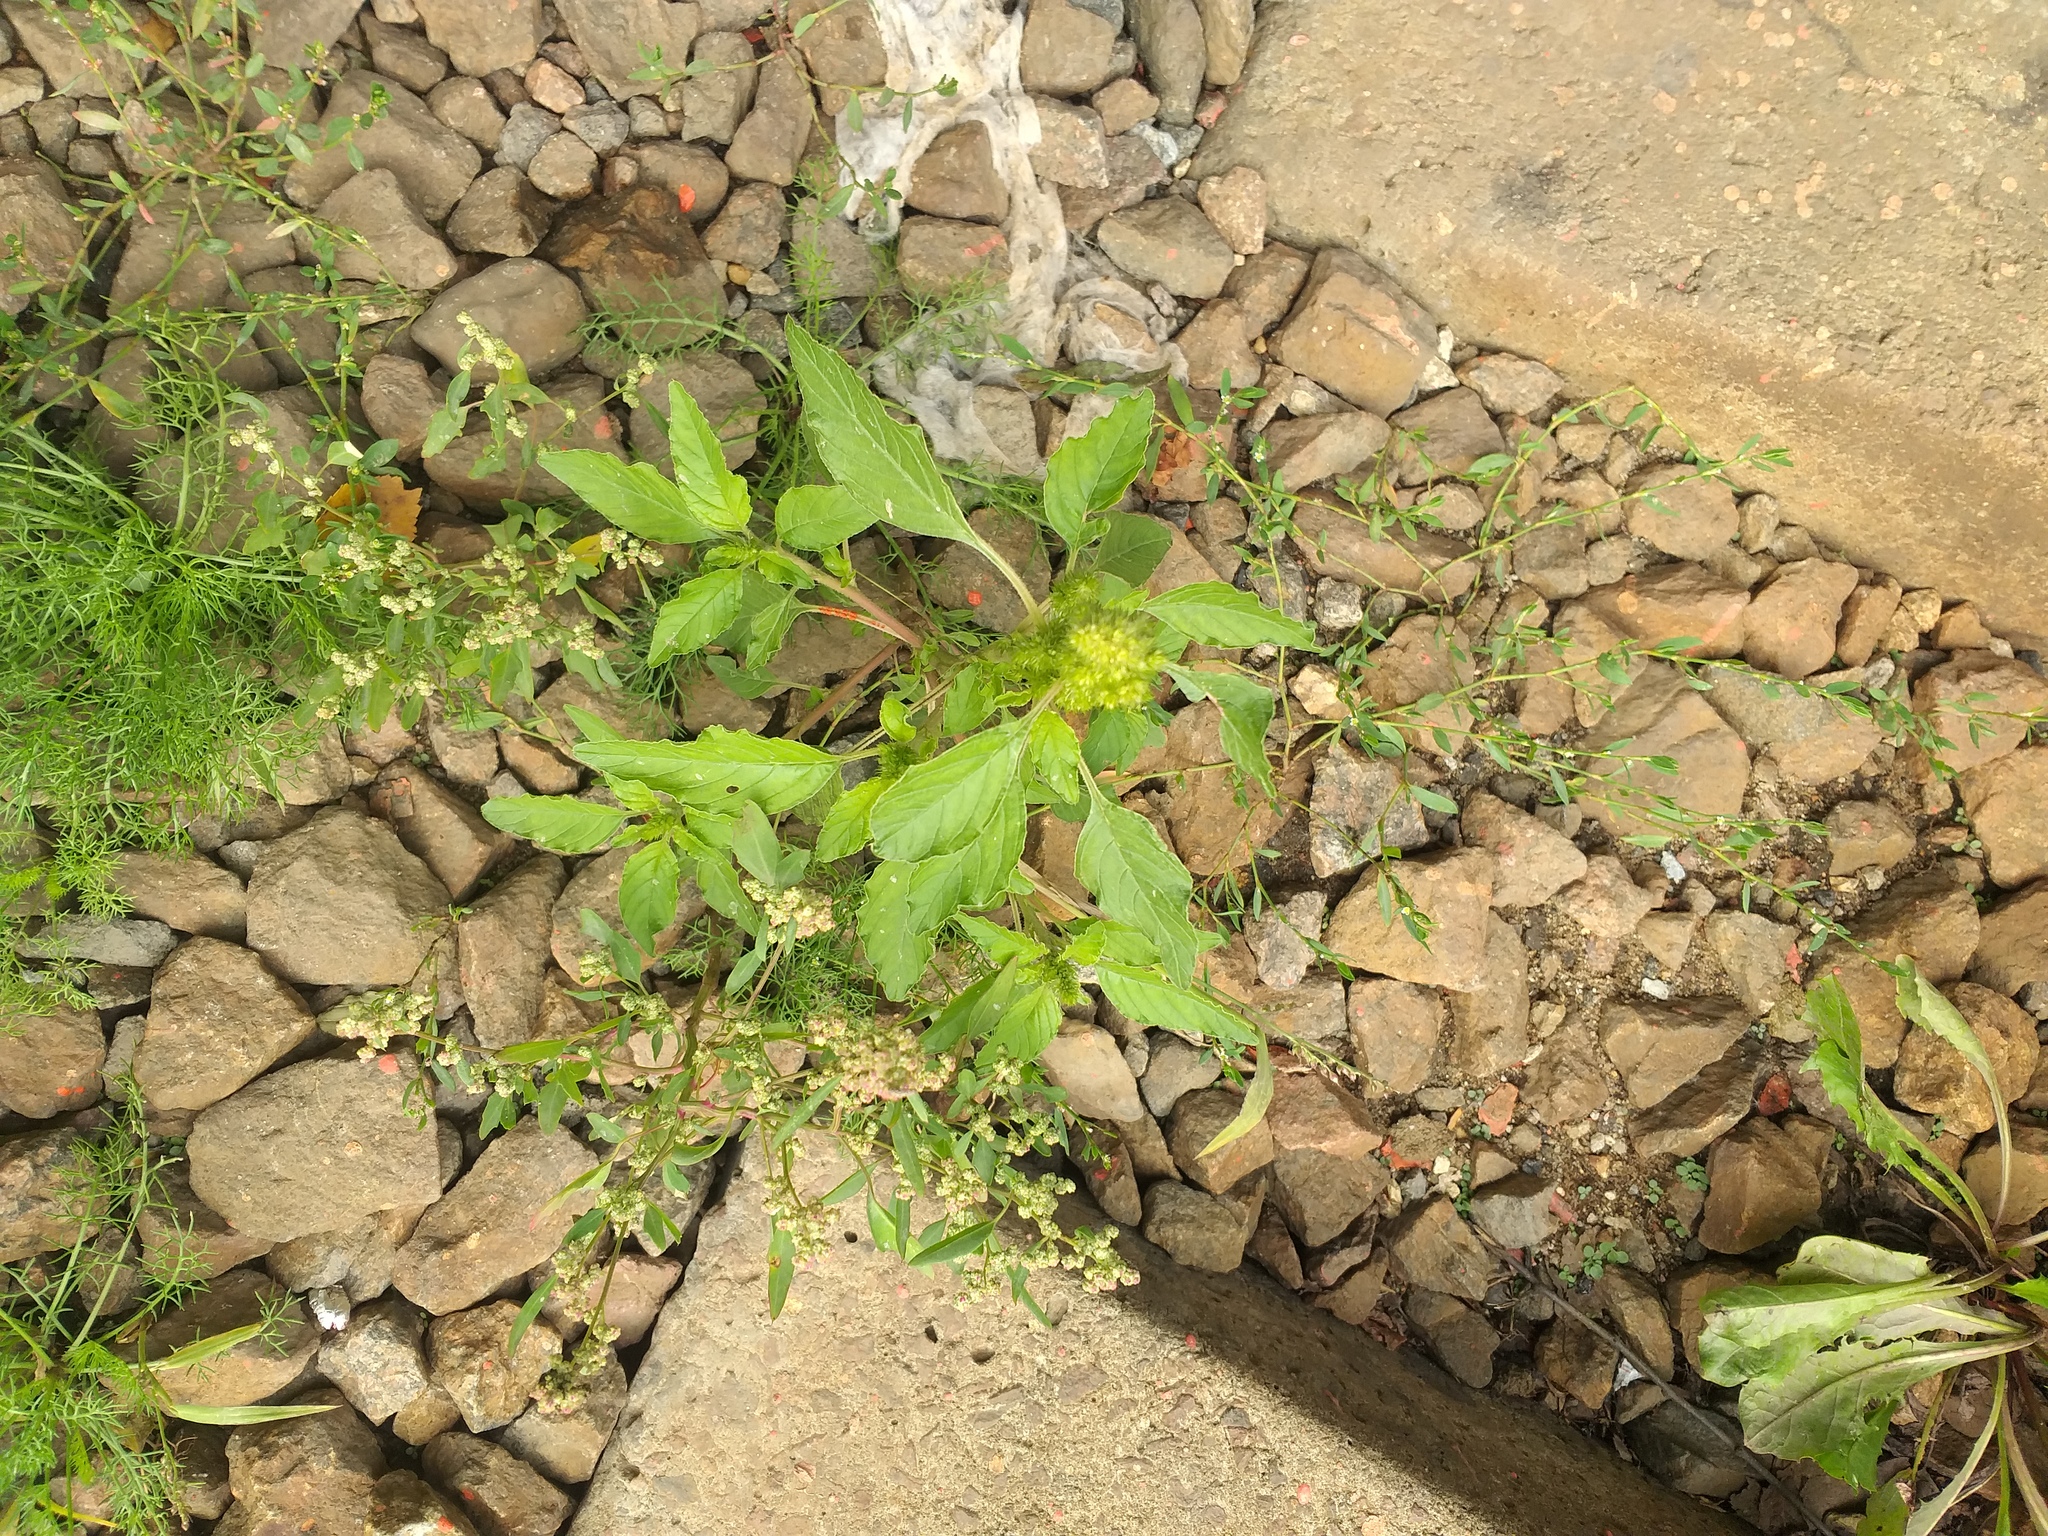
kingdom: Plantae
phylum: Tracheophyta
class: Magnoliopsida
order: Caryophyllales
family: Amaranthaceae
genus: Amaranthus
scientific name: Amaranthus retroflexus
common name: Redroot amaranth
